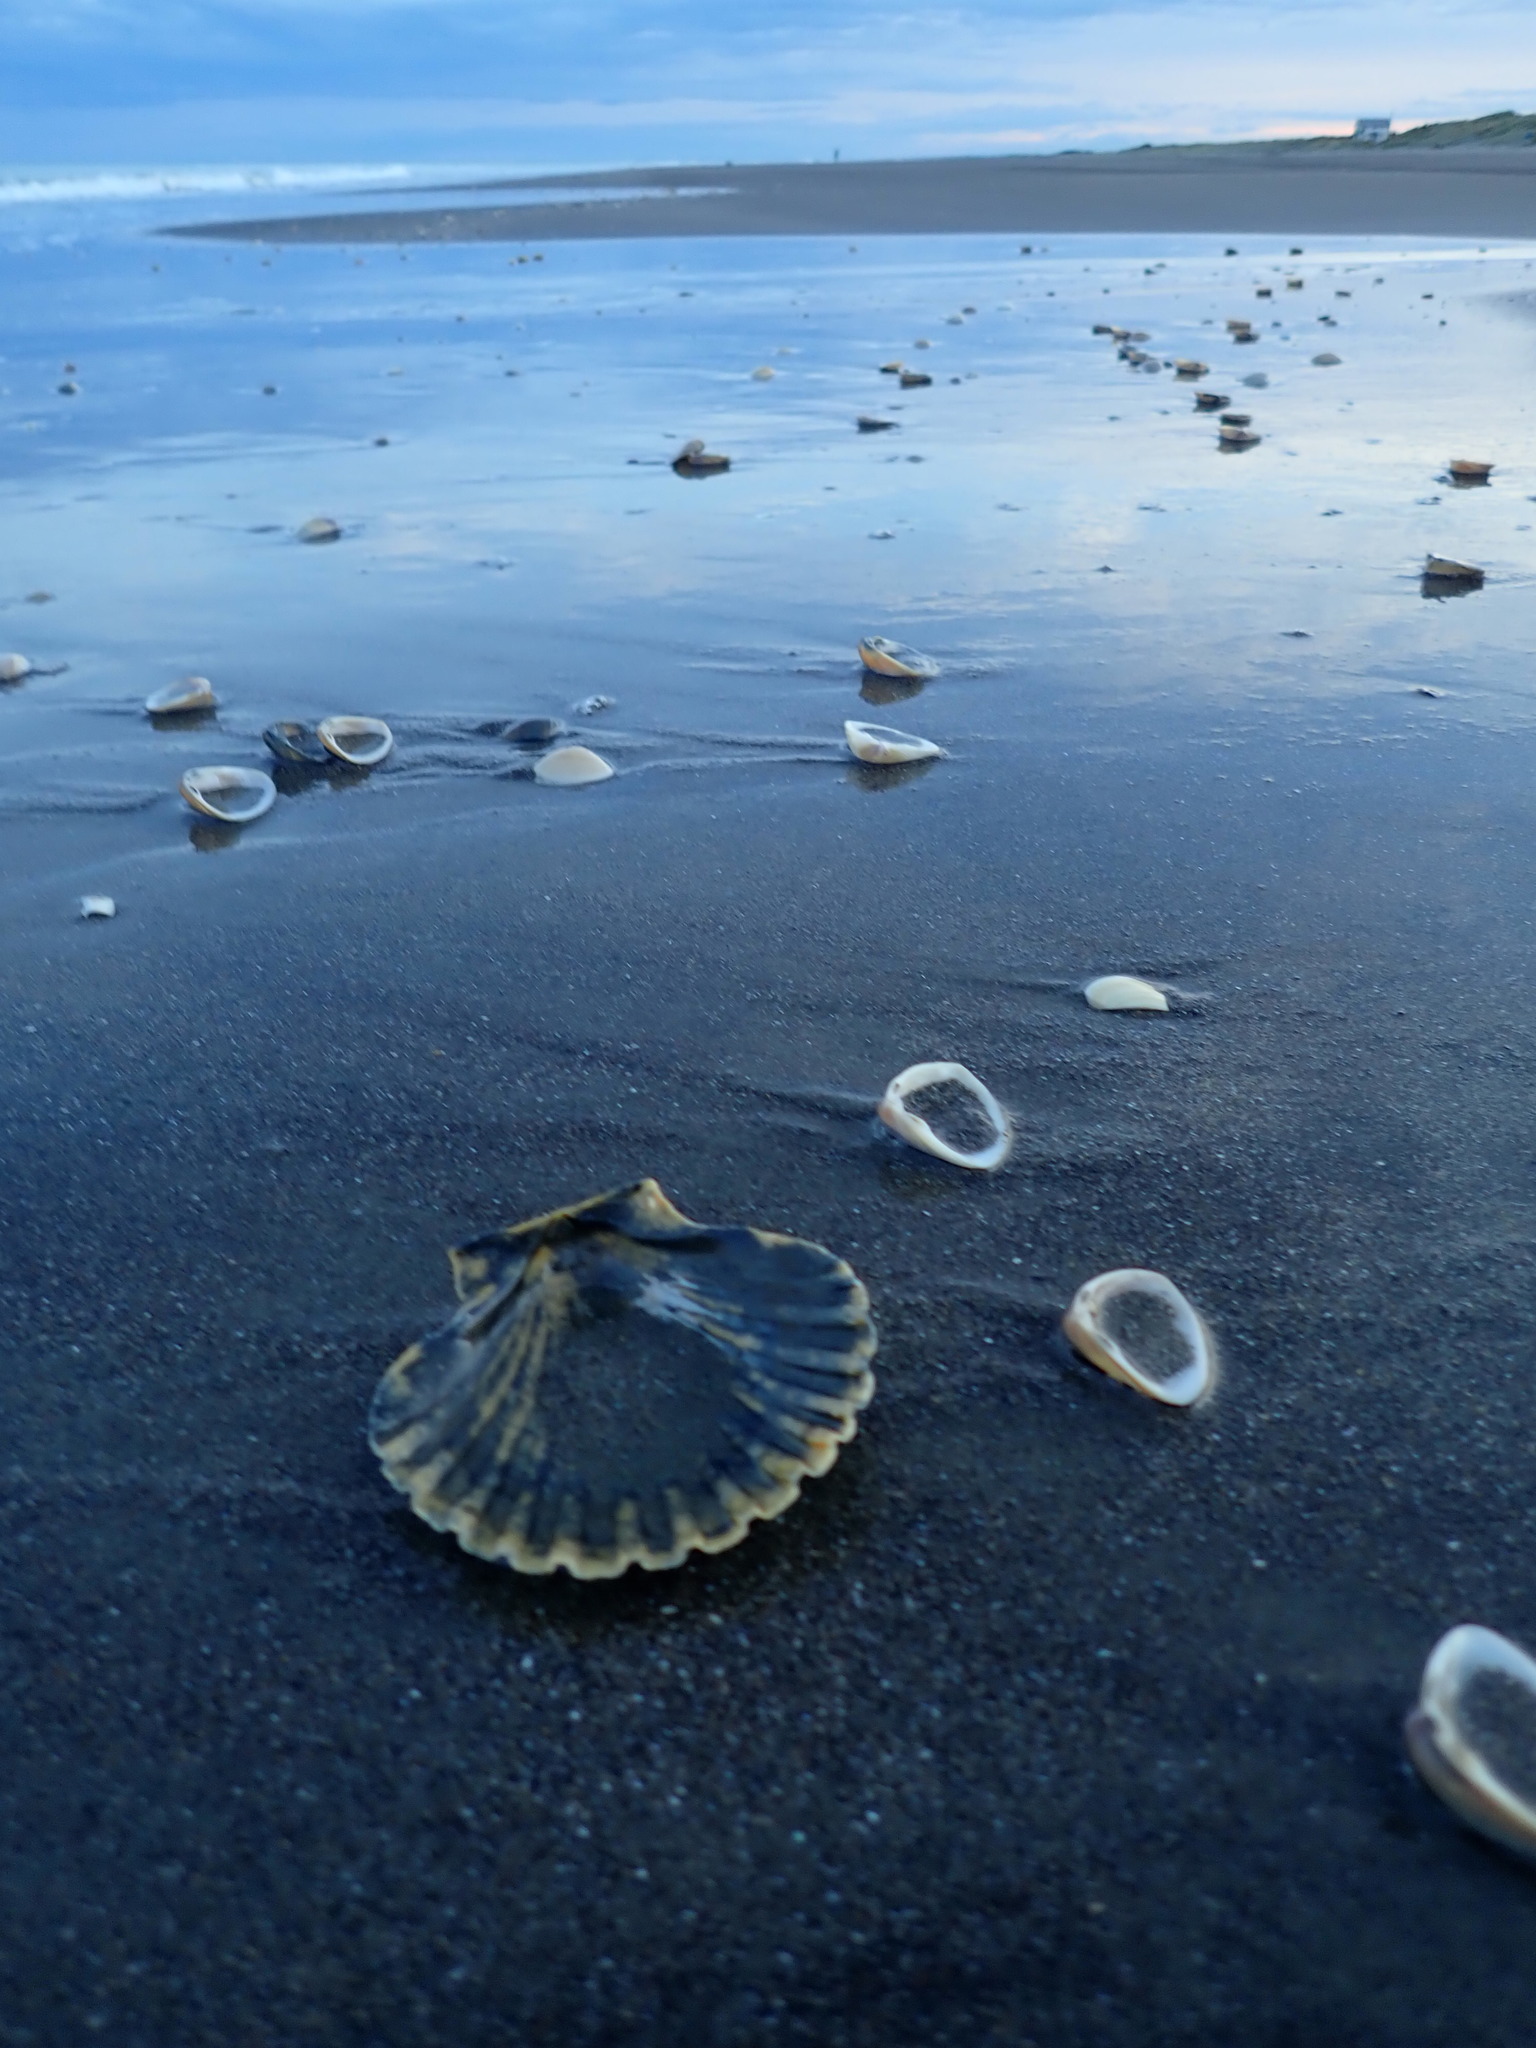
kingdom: Animalia
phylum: Mollusca
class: Bivalvia
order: Pectinida
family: Pectinidae
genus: Pecten
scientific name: Pecten novaezelandiae
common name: New zealand scallop
